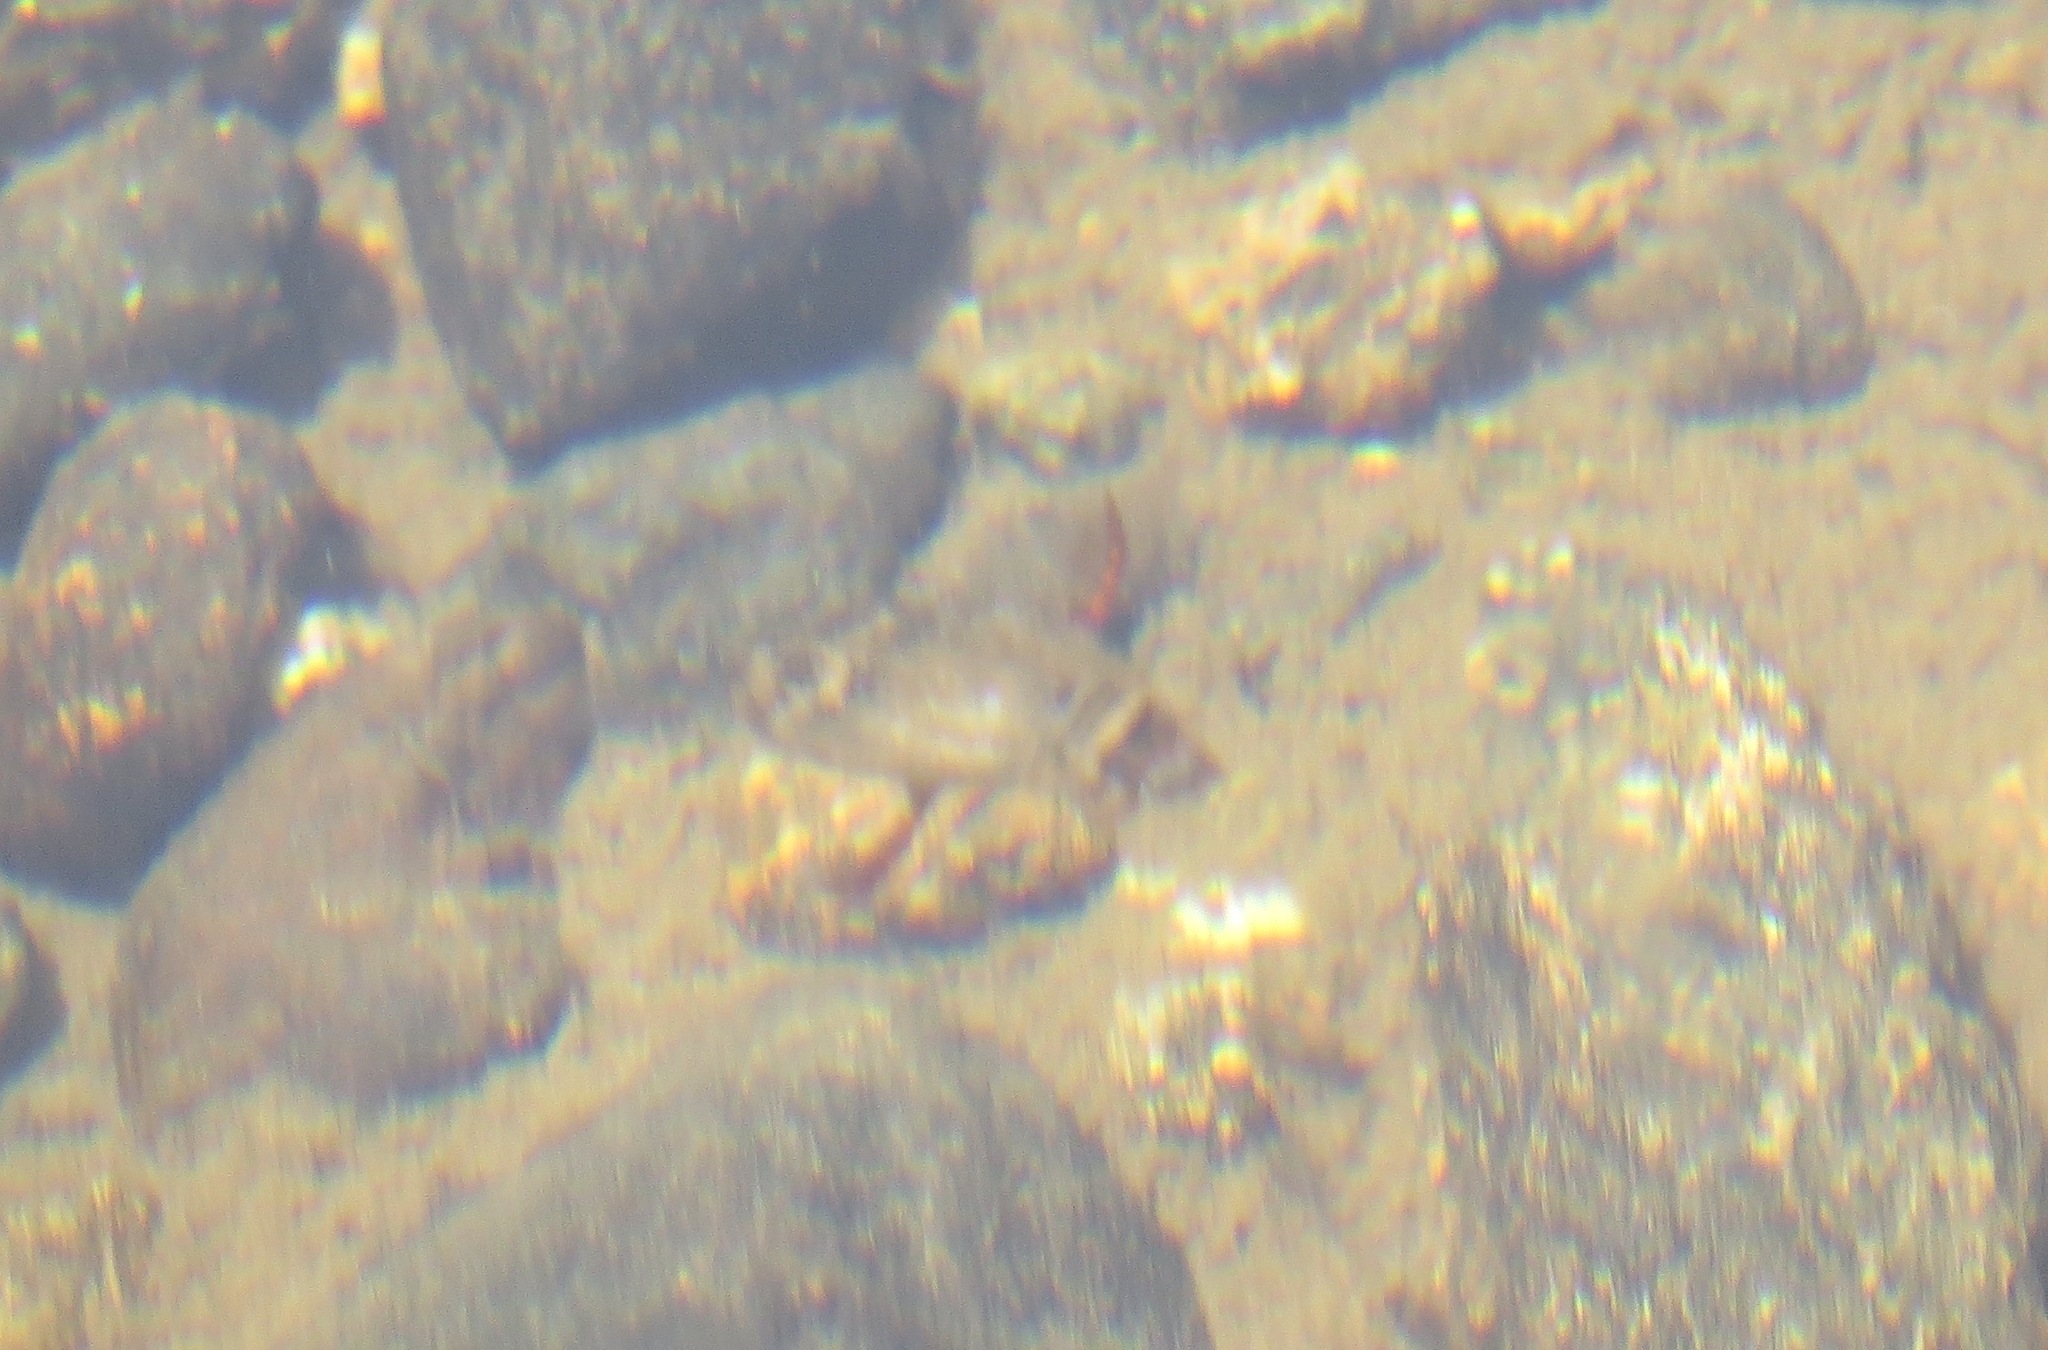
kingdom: Animalia
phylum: Arthropoda
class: Insecta
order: Coleoptera
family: Dytiscidae
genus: Acilius
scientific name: Acilius abbreviatus
